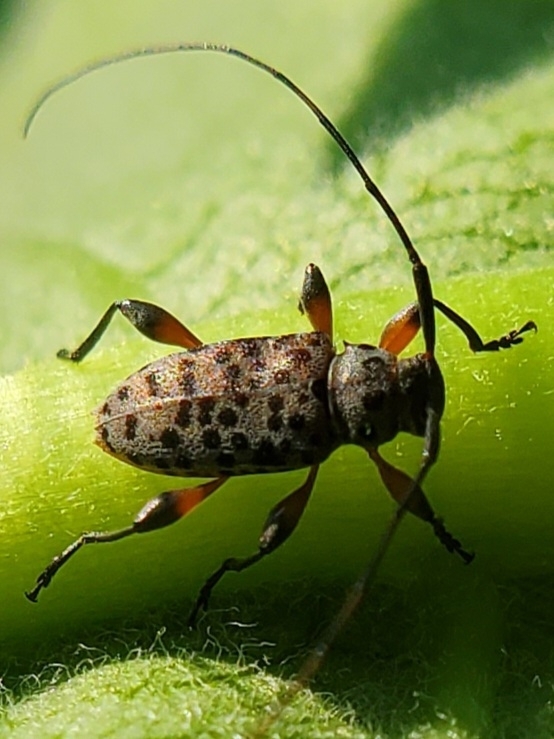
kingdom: Animalia
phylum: Arthropoda
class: Insecta
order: Coleoptera
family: Cerambycidae
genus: Hyperplatys
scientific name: Hyperplatys aspersa
